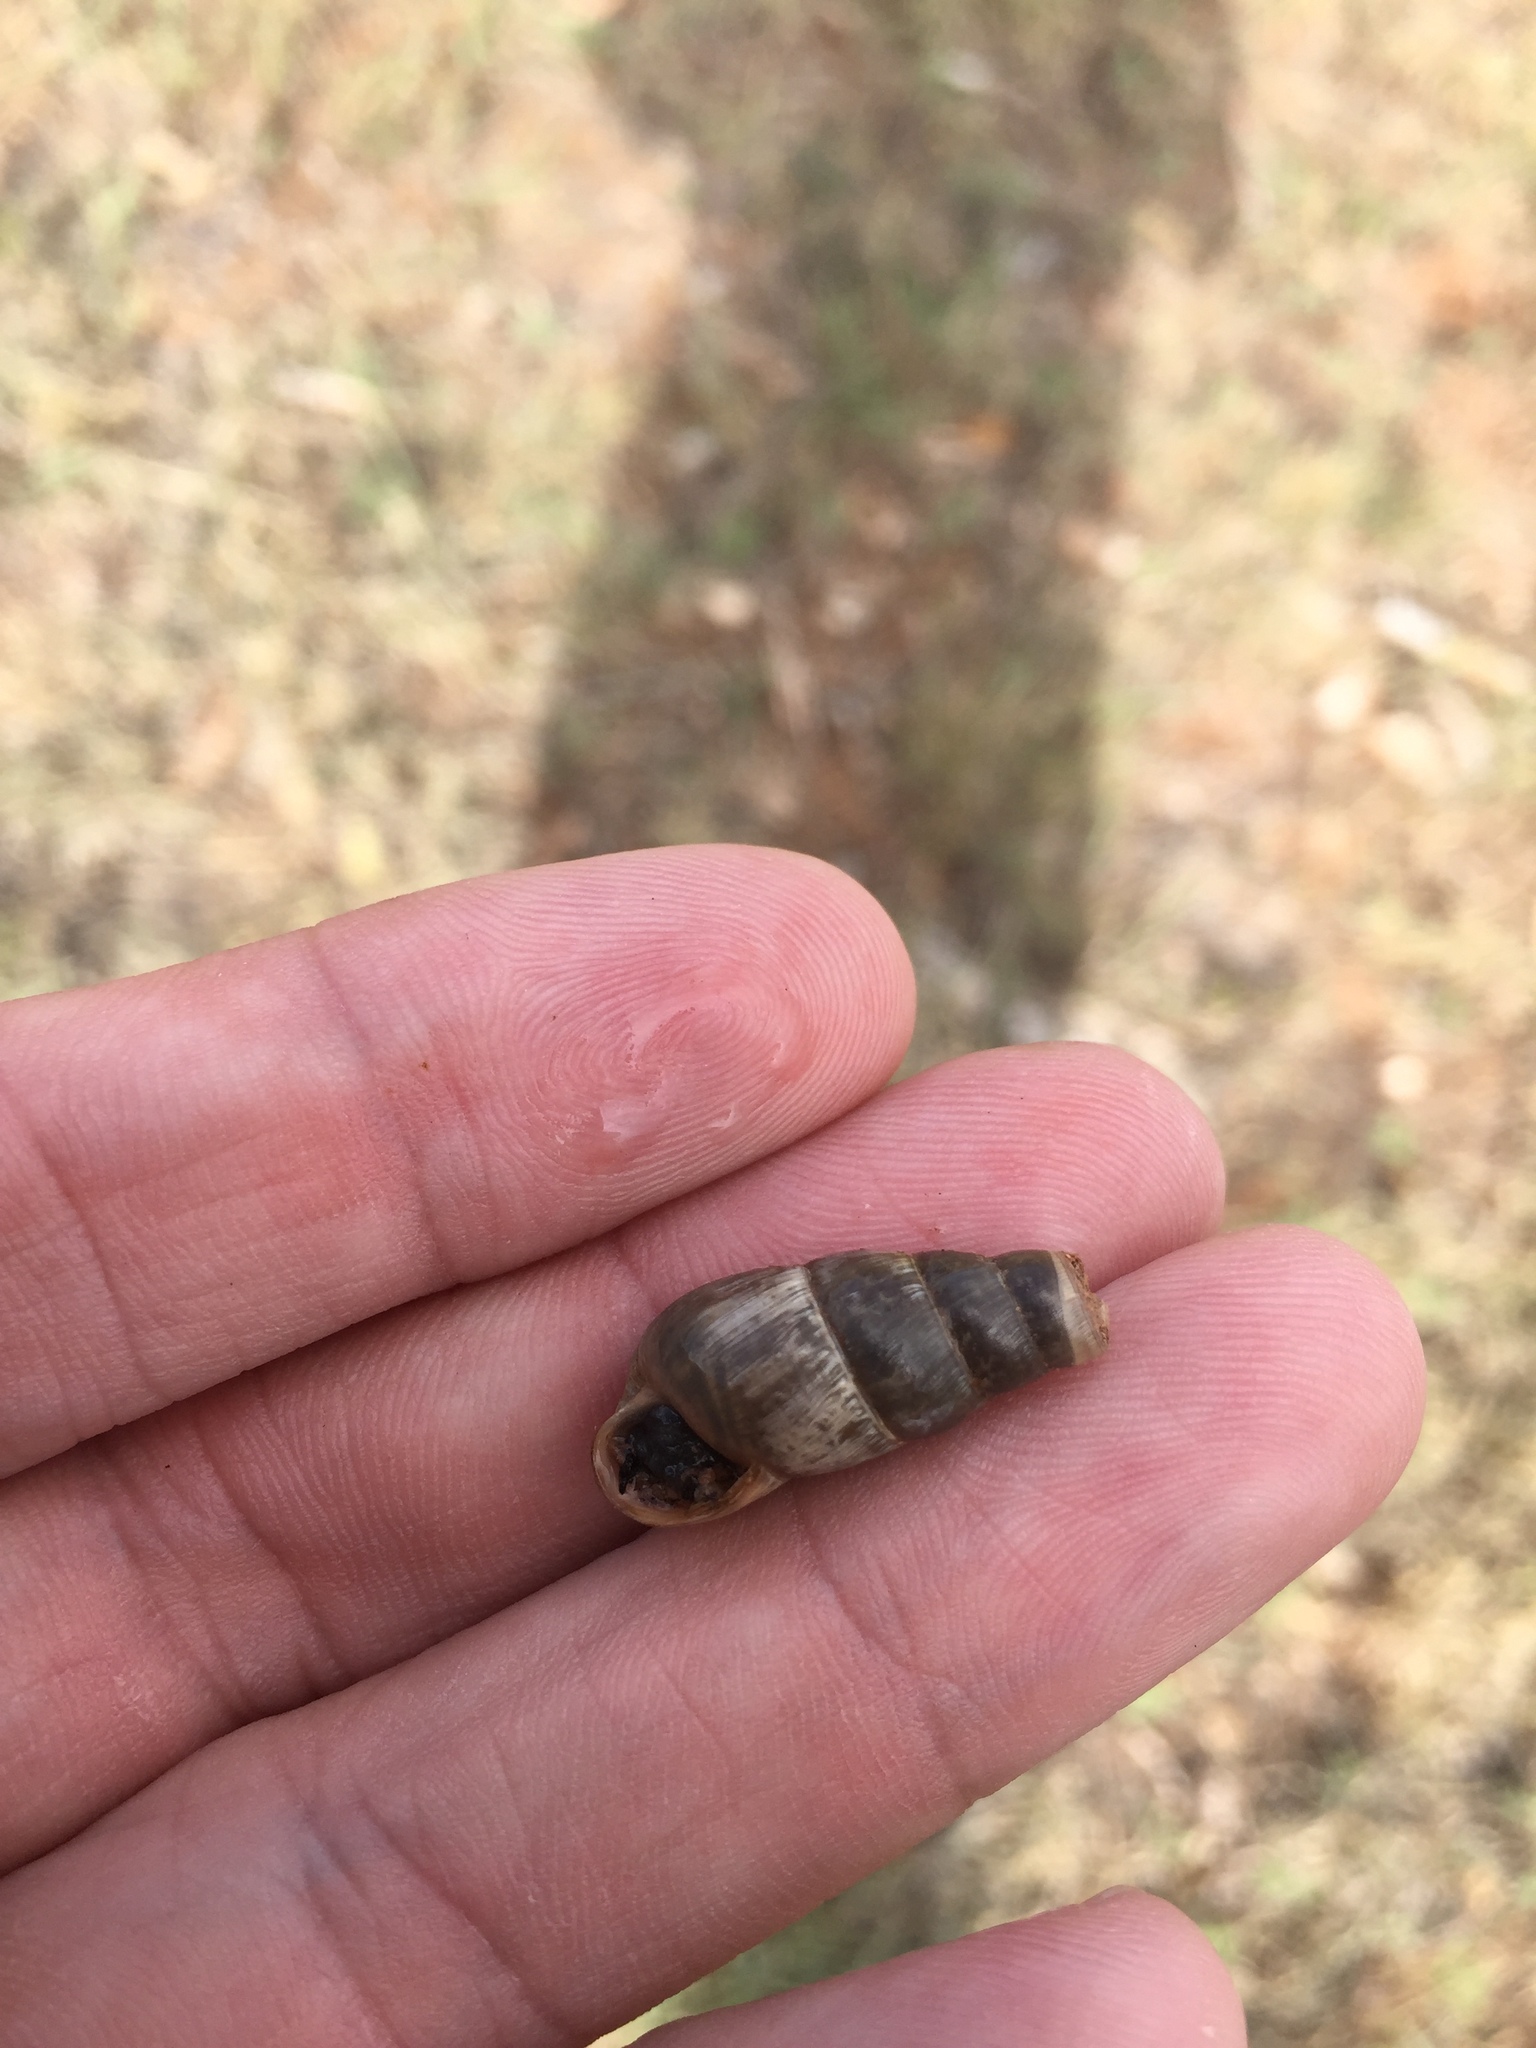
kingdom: Animalia
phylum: Mollusca
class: Gastropoda
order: Stylommatophora
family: Achatinidae
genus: Rumina
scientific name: Rumina decollata
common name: Decollate snail
